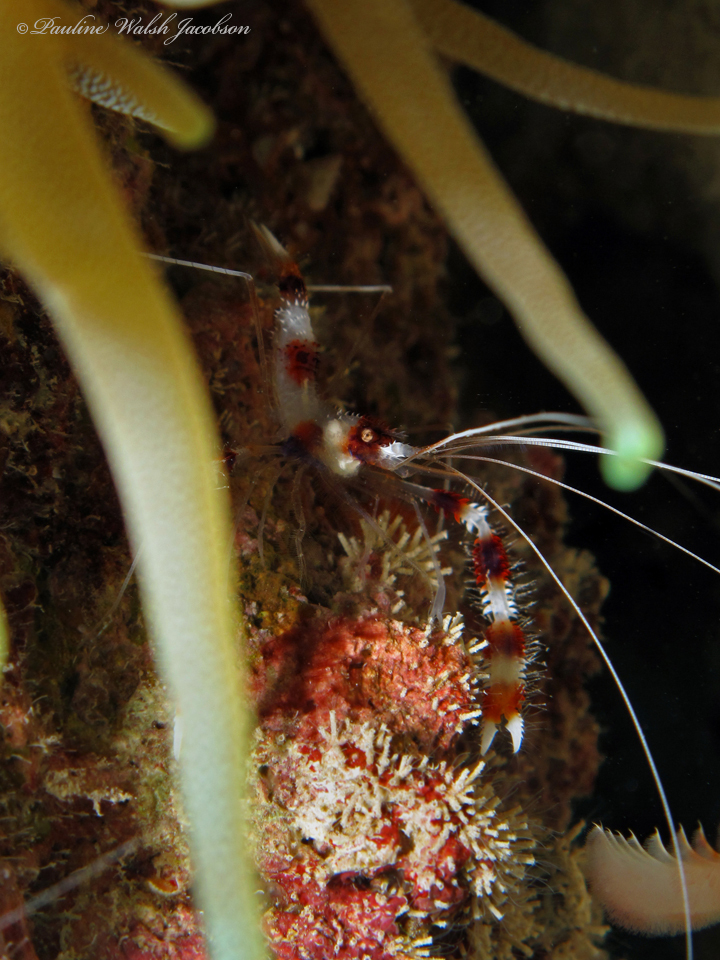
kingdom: Animalia
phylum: Arthropoda
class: Malacostraca
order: Decapoda
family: Stenopodidae
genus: Stenopus
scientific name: Stenopus hispidus
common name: Banded coral shrimp
